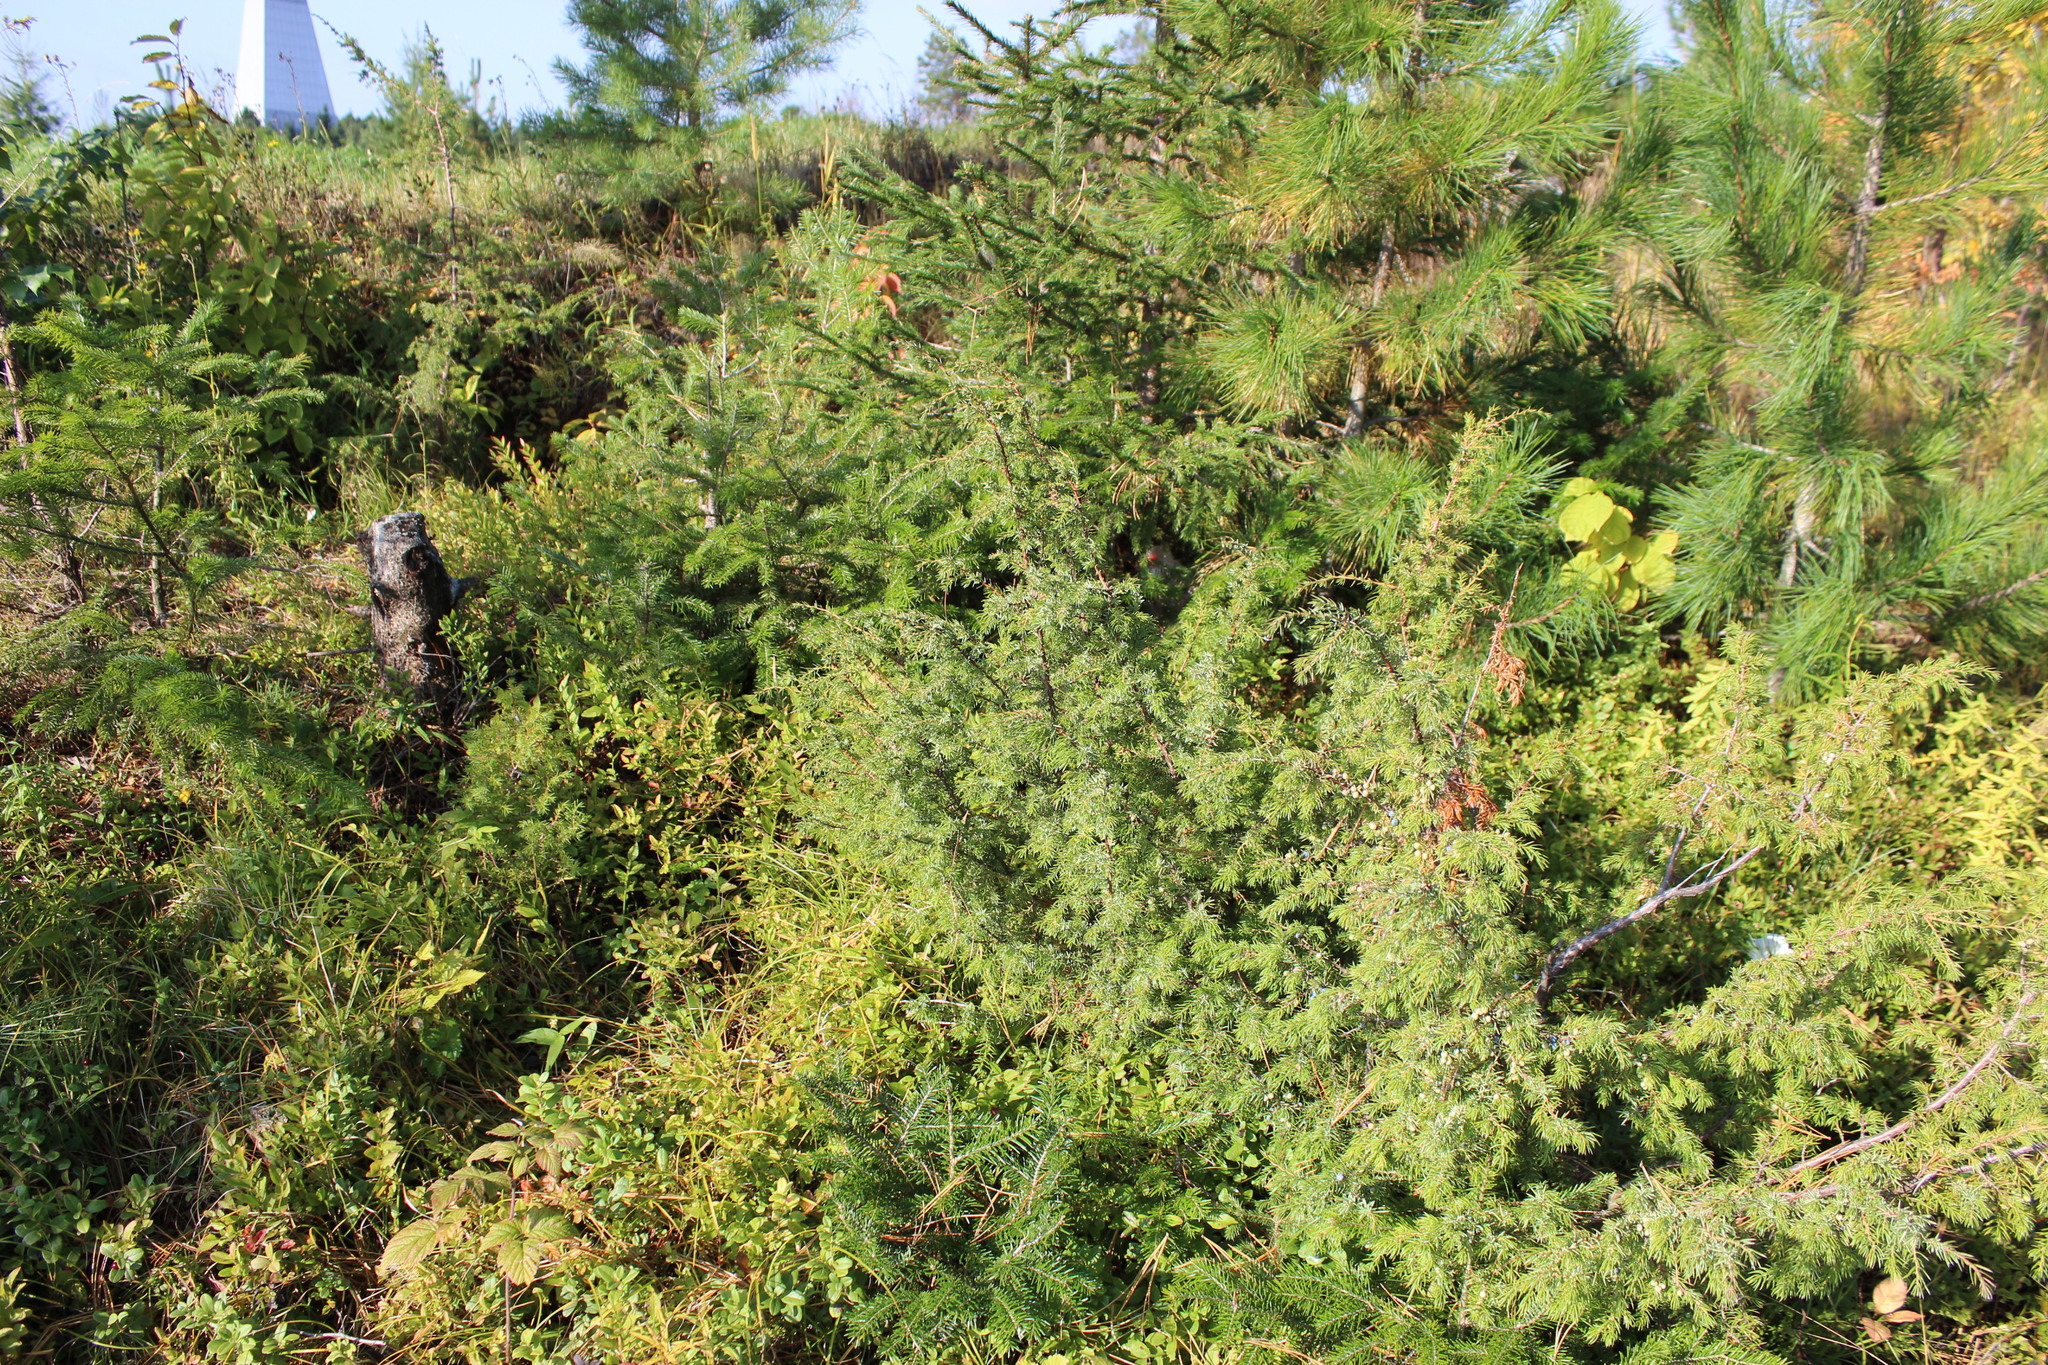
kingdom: Plantae
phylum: Tracheophyta
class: Pinopsida
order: Pinales
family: Cupressaceae
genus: Juniperus
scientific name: Juniperus communis
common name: Common juniper
